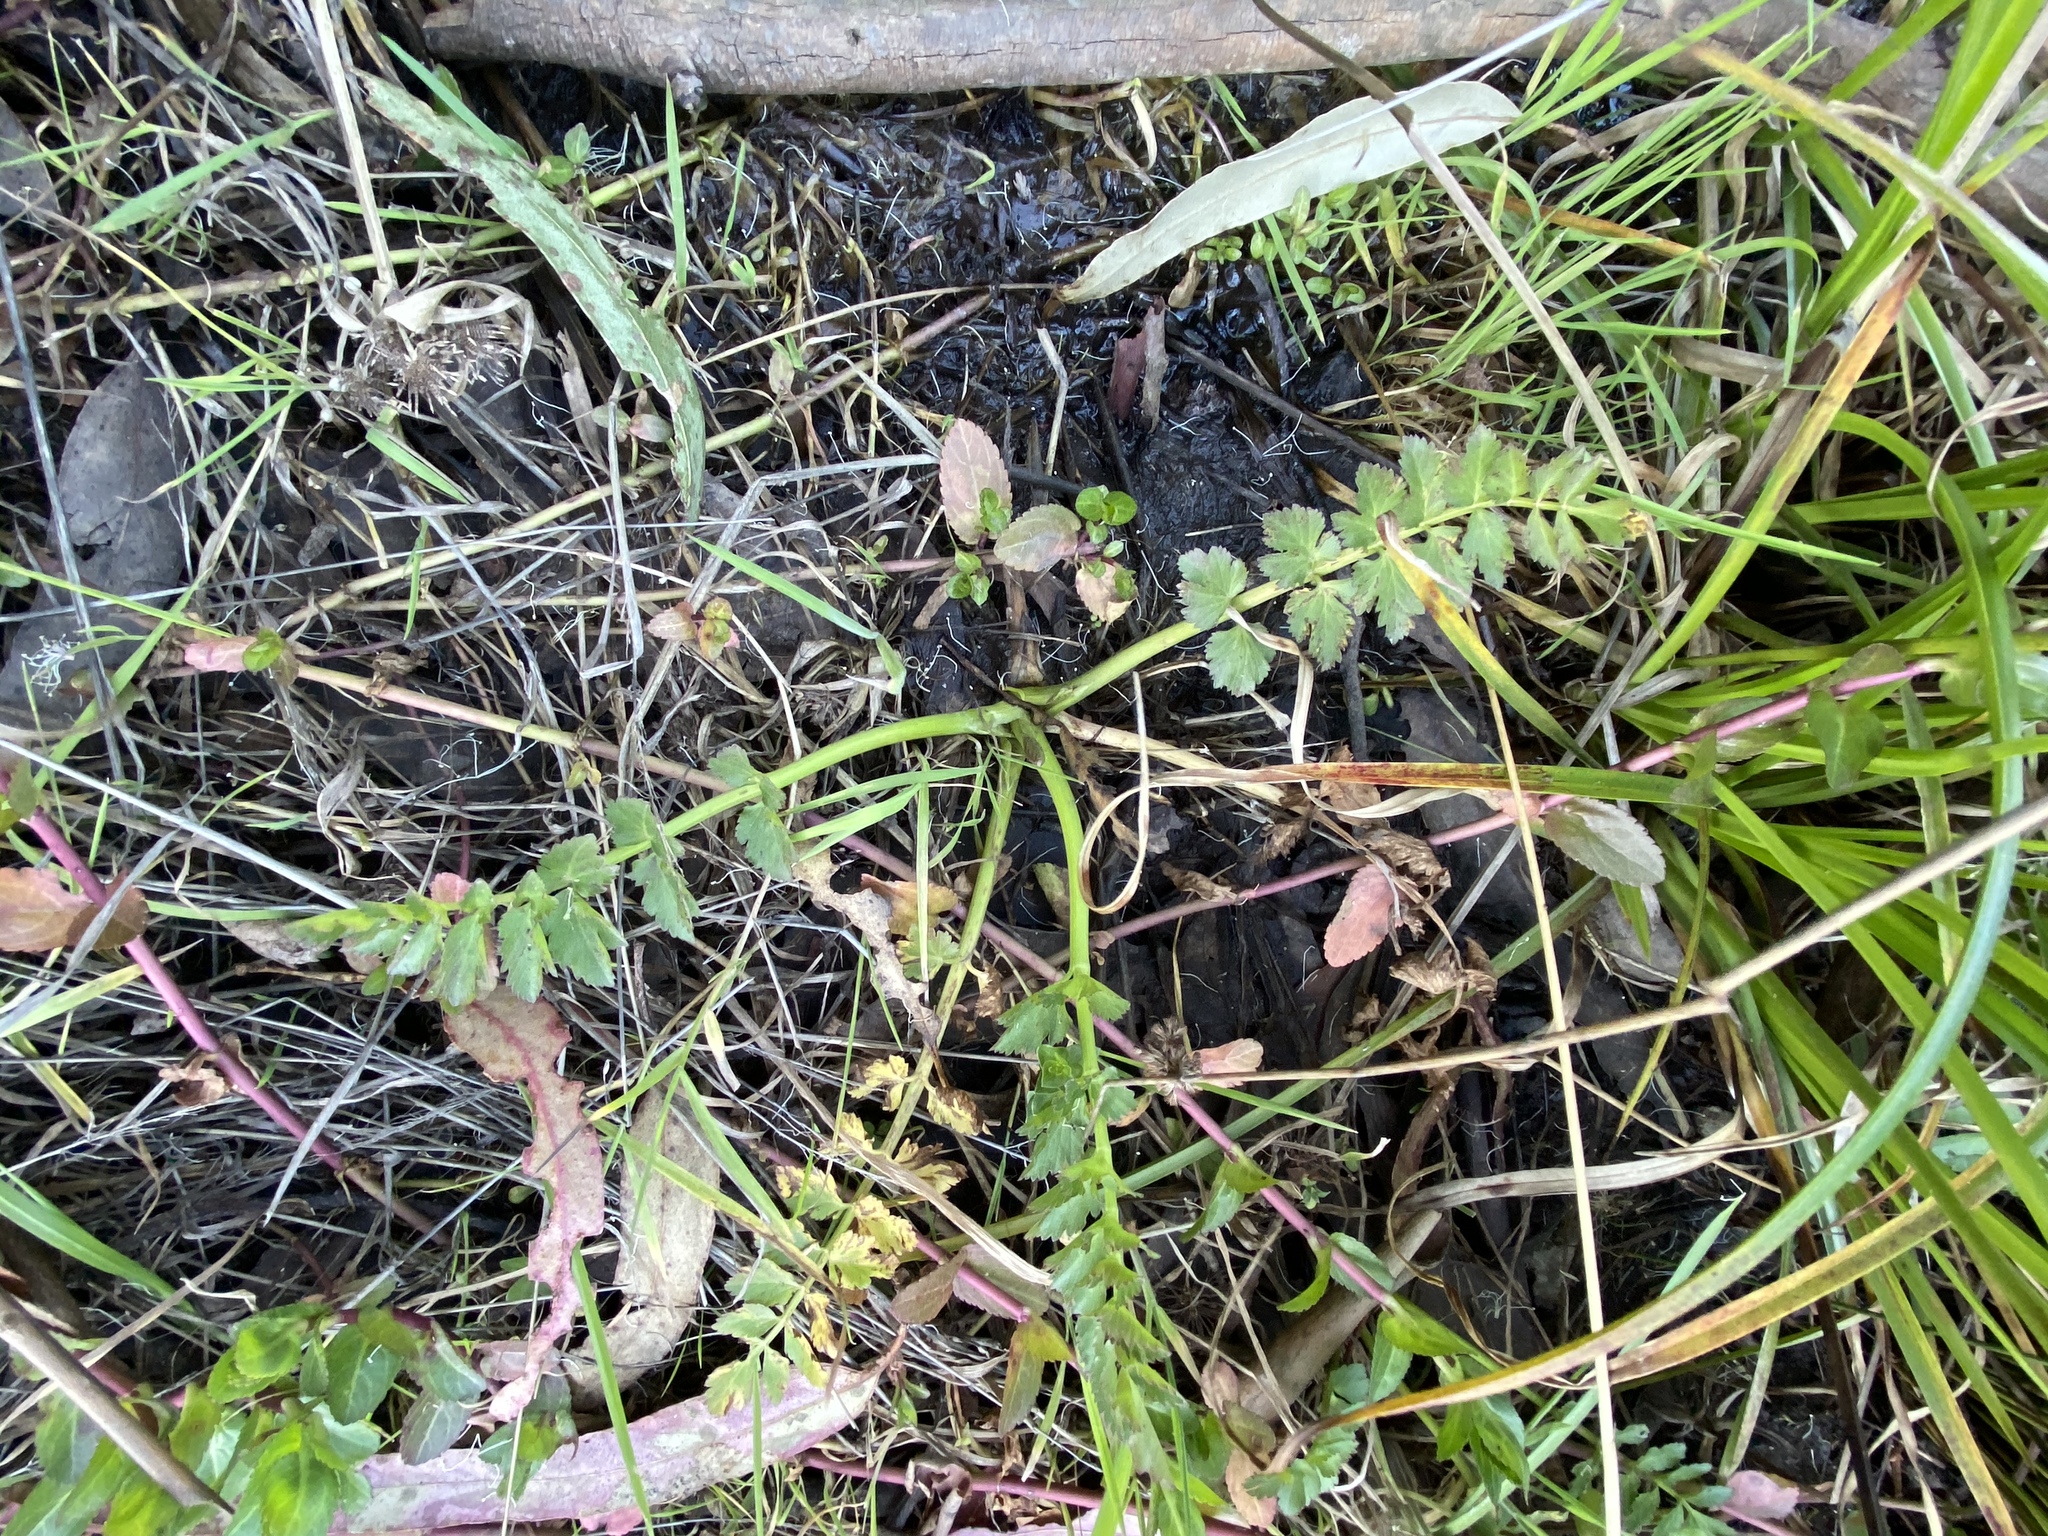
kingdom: Plantae
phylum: Tracheophyta
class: Magnoliopsida
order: Apiales
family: Apiaceae
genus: Oenanthe
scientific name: Oenanthe sarmentosa
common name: American water-parsley
